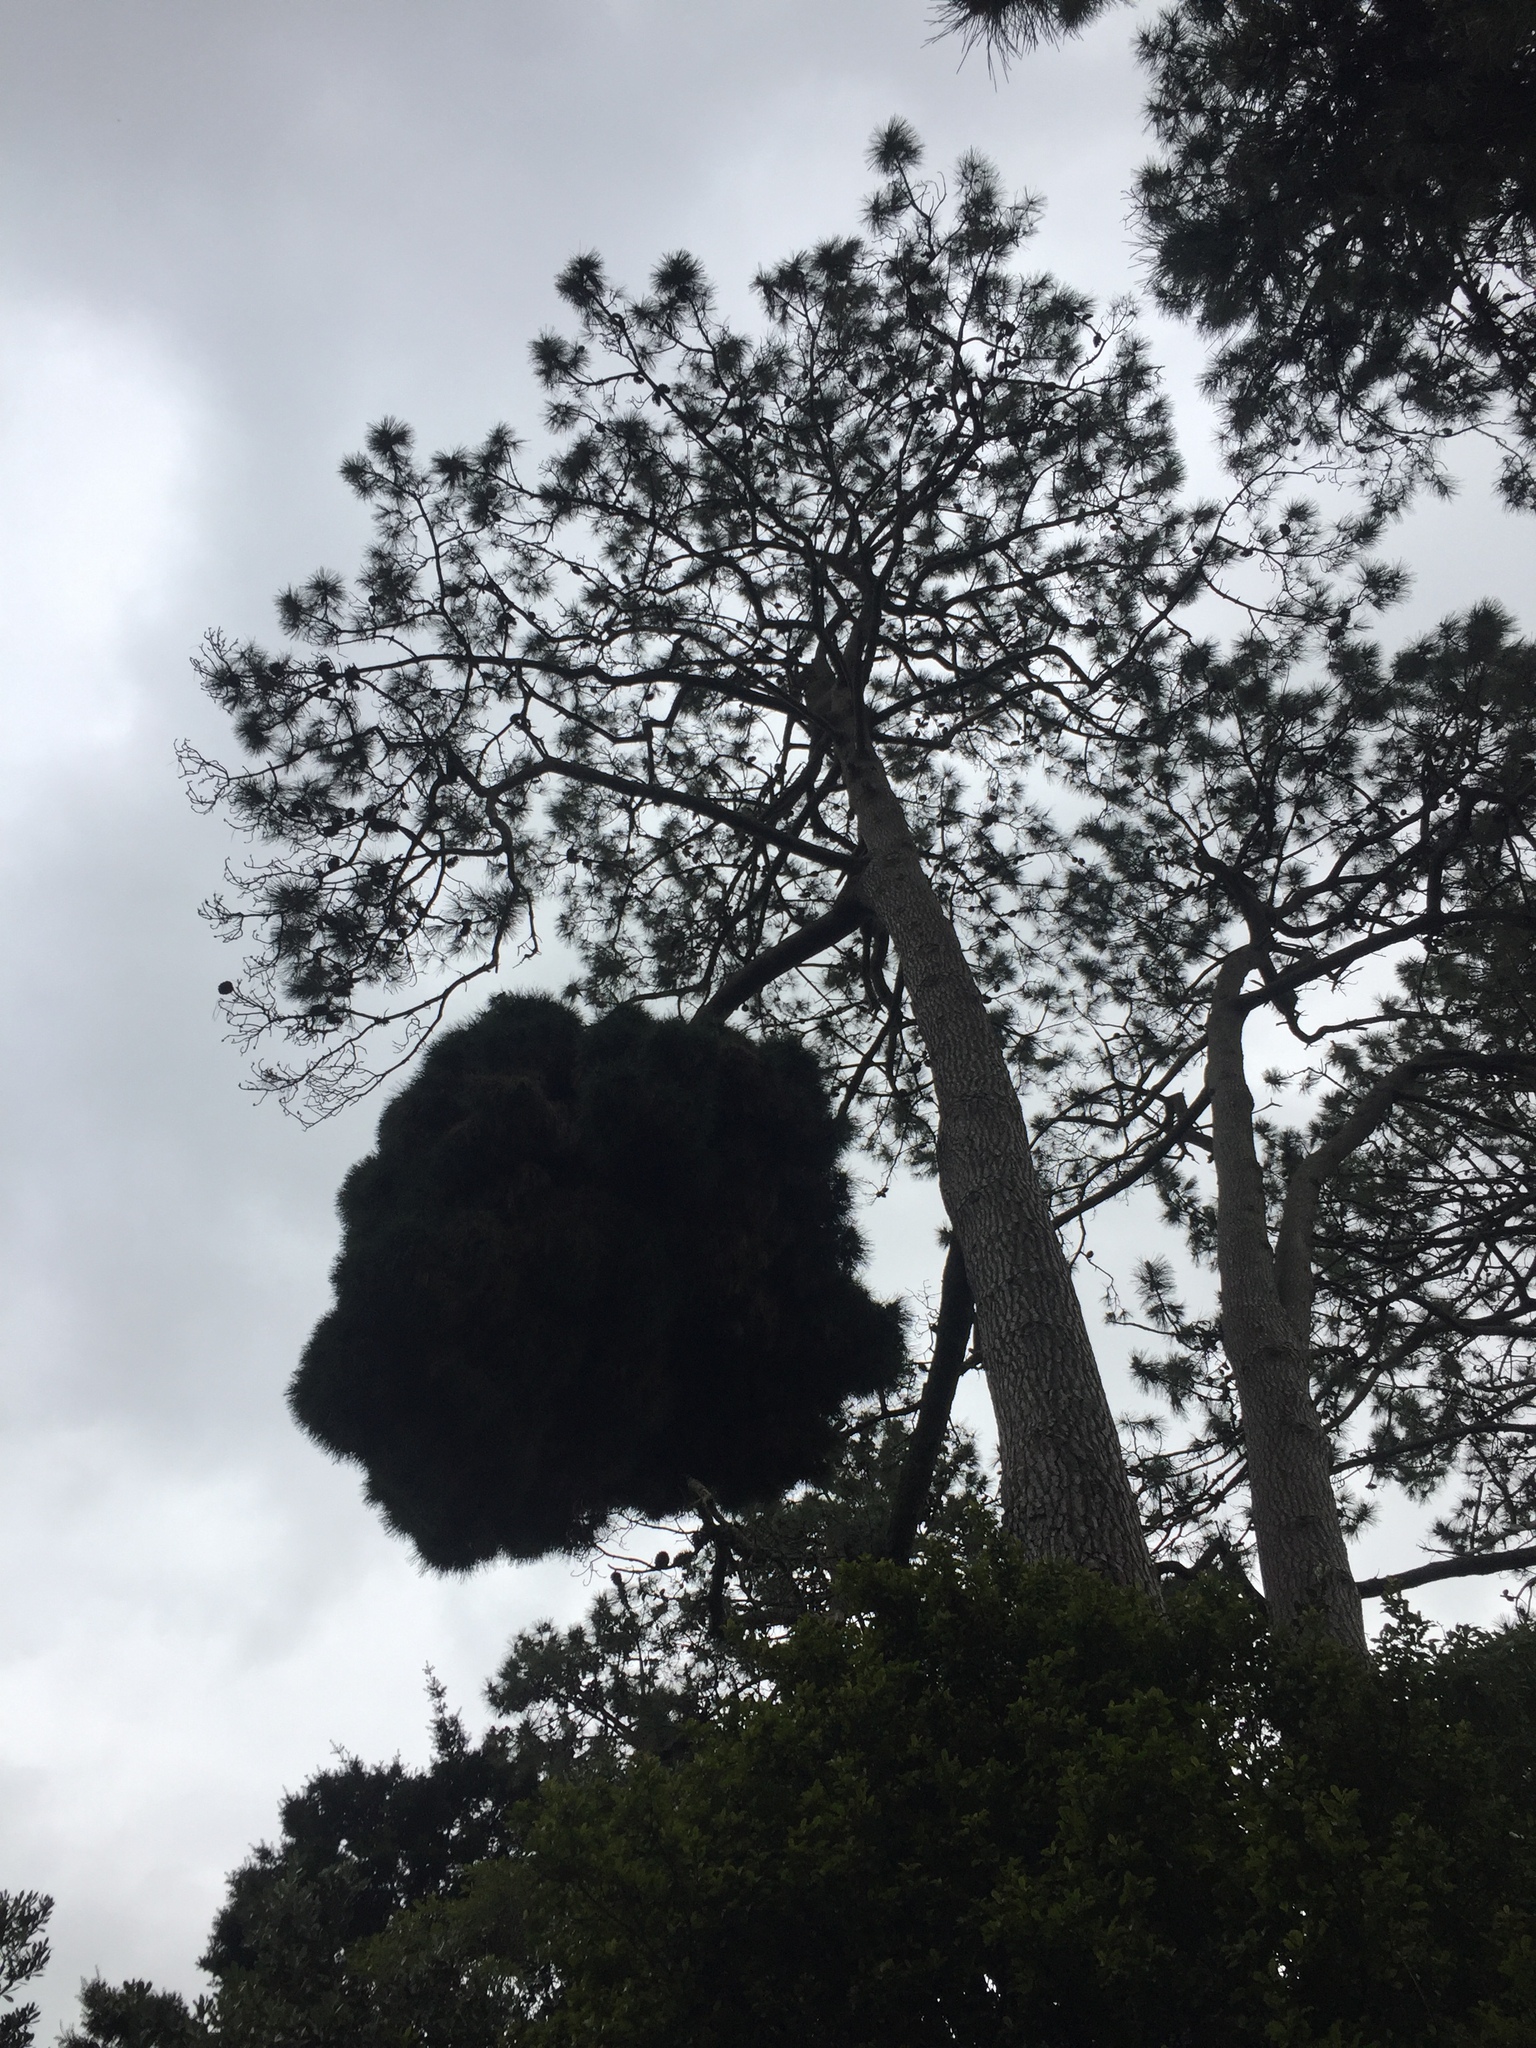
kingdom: Plantae
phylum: Tracheophyta
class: Pinopsida
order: Pinales
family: Pinaceae
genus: Pinus
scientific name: Pinus pinaster
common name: Maritime pine
